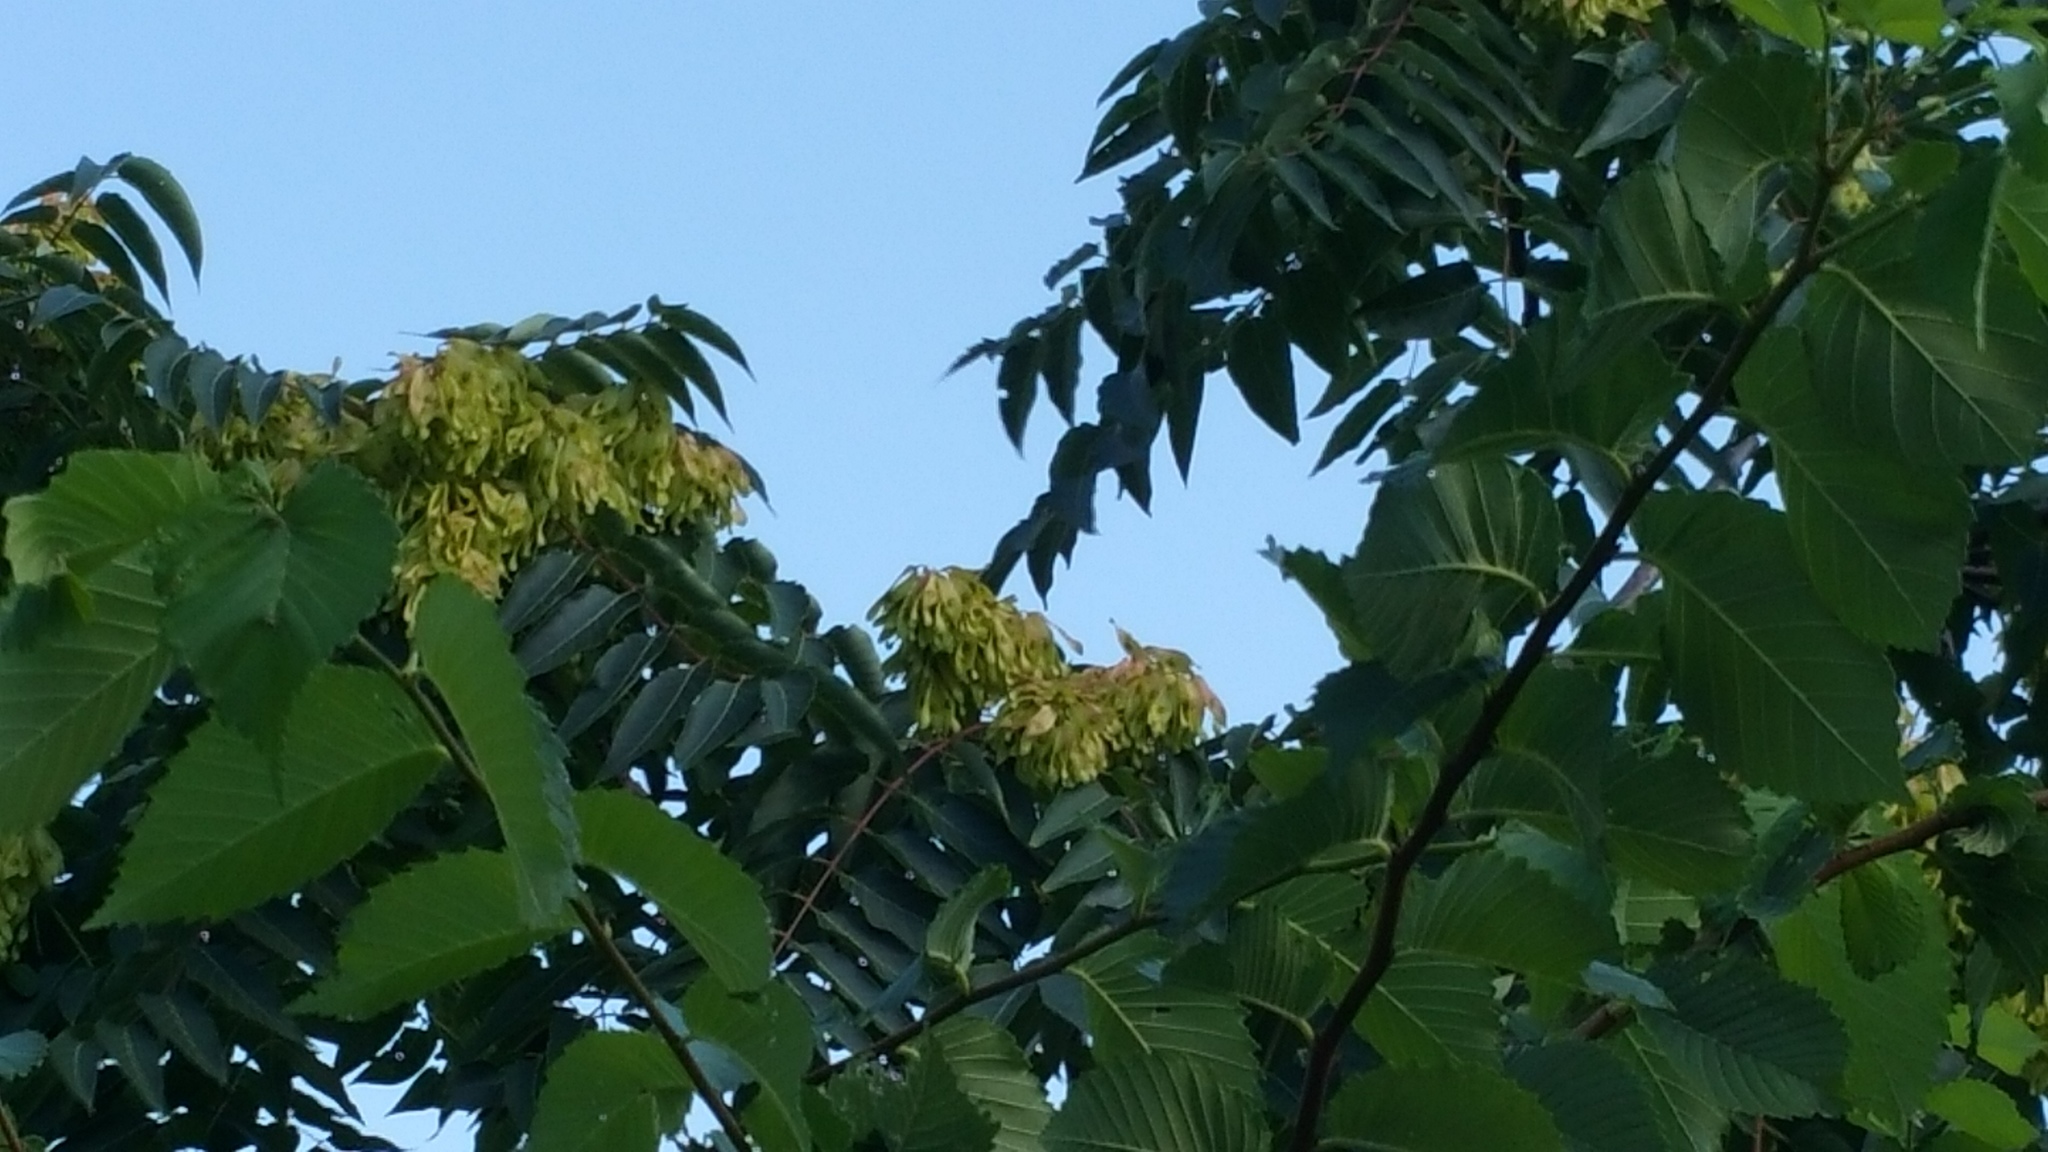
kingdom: Plantae
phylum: Tracheophyta
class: Magnoliopsida
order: Sapindales
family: Simaroubaceae
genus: Ailanthus
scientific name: Ailanthus altissima
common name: Tree-of-heaven
